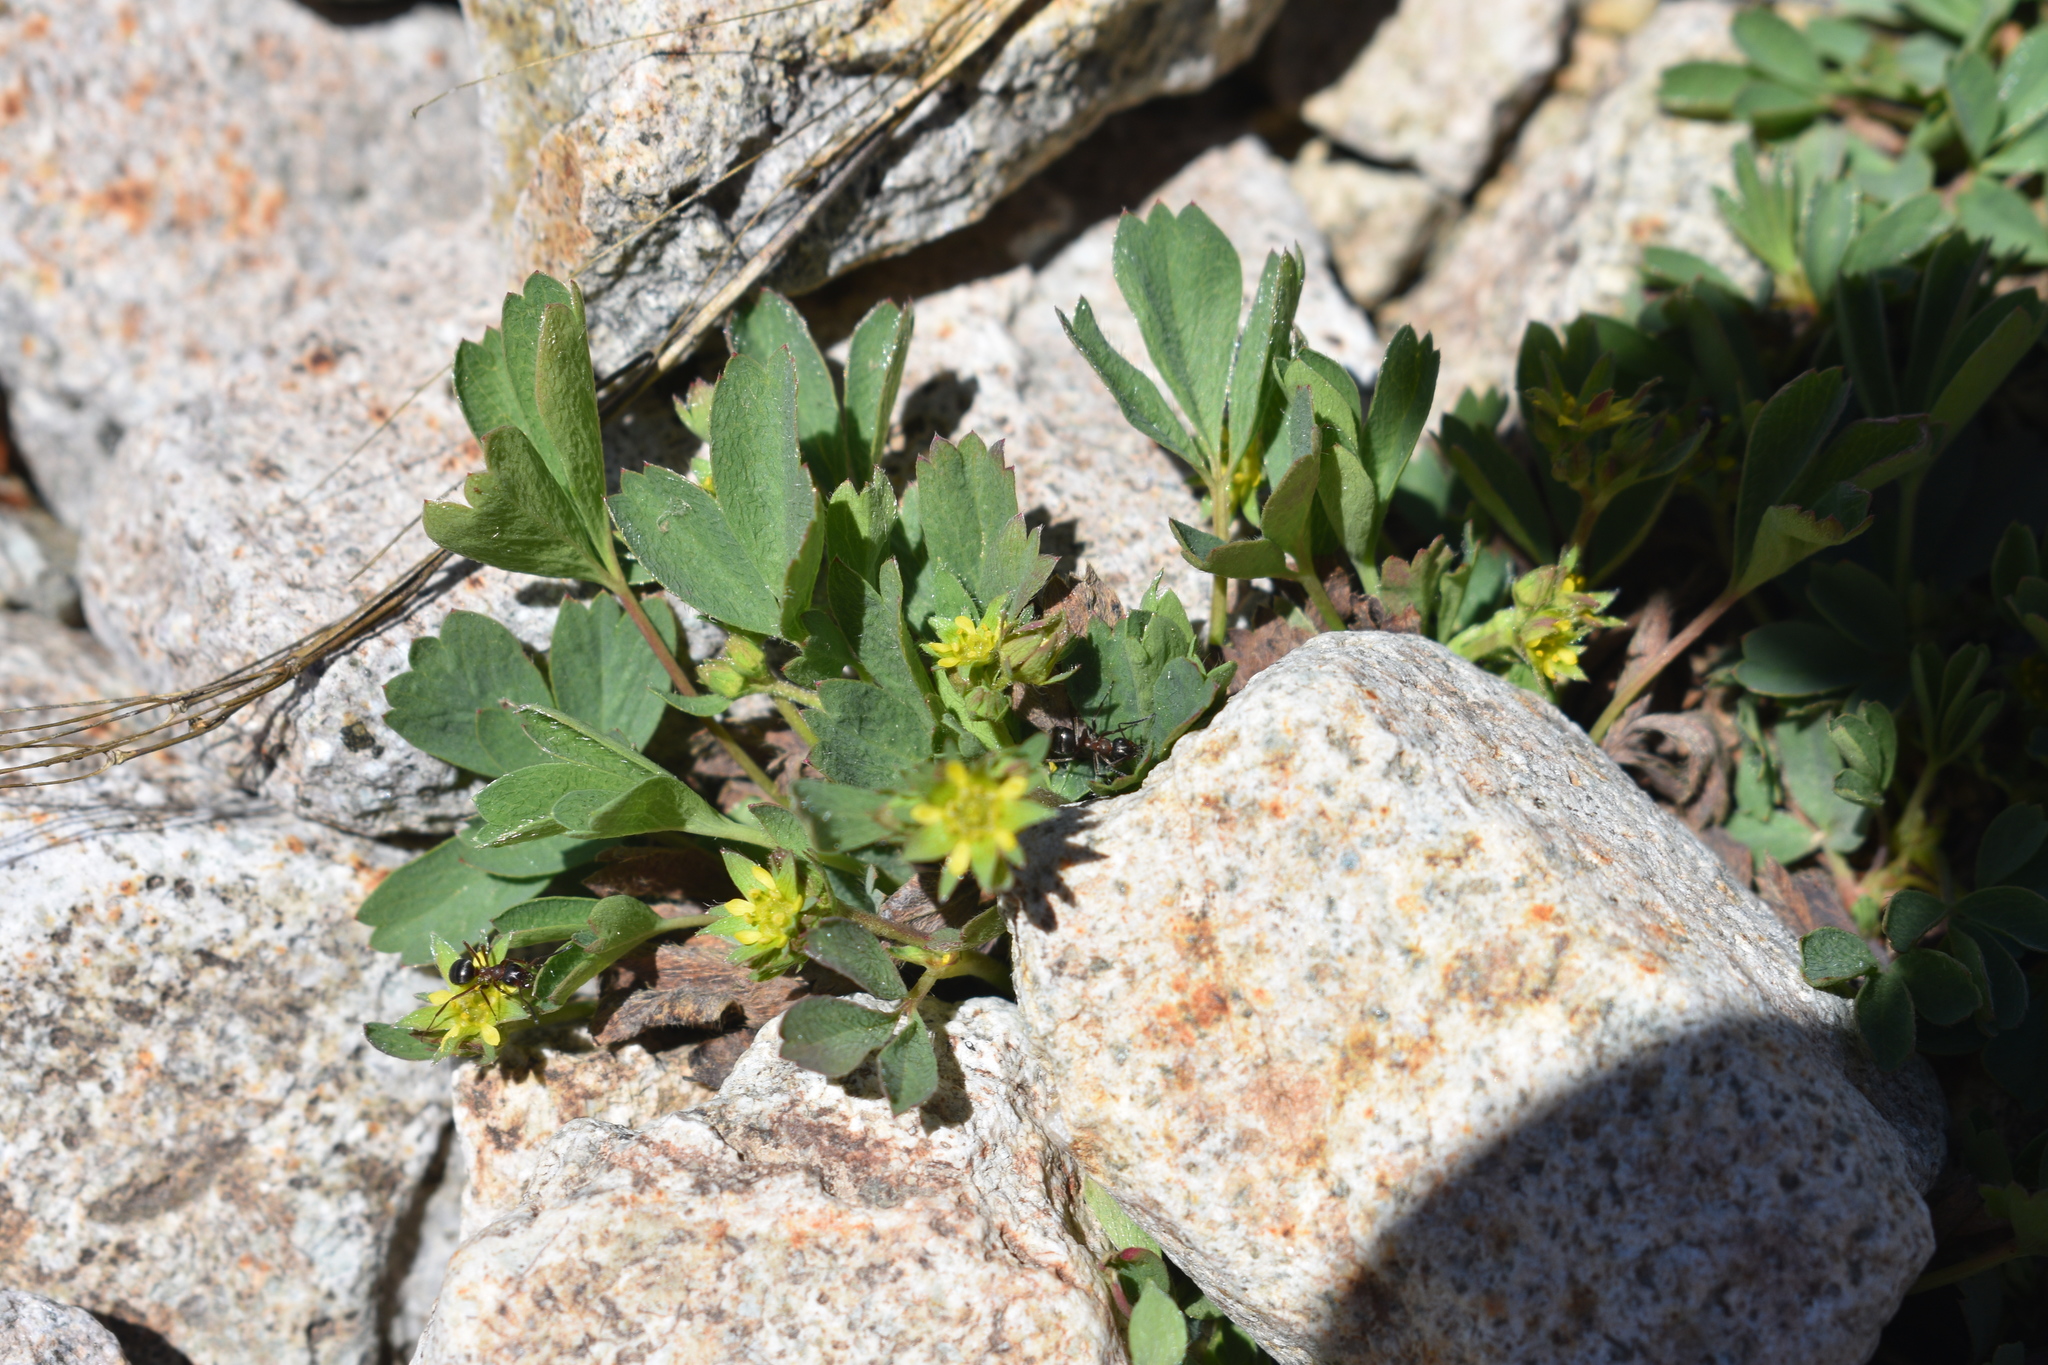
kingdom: Plantae
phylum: Tracheophyta
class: Magnoliopsida
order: Rosales
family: Rosaceae
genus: Sibbaldia
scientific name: Sibbaldia procumbens
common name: Creeping sibbaldia
